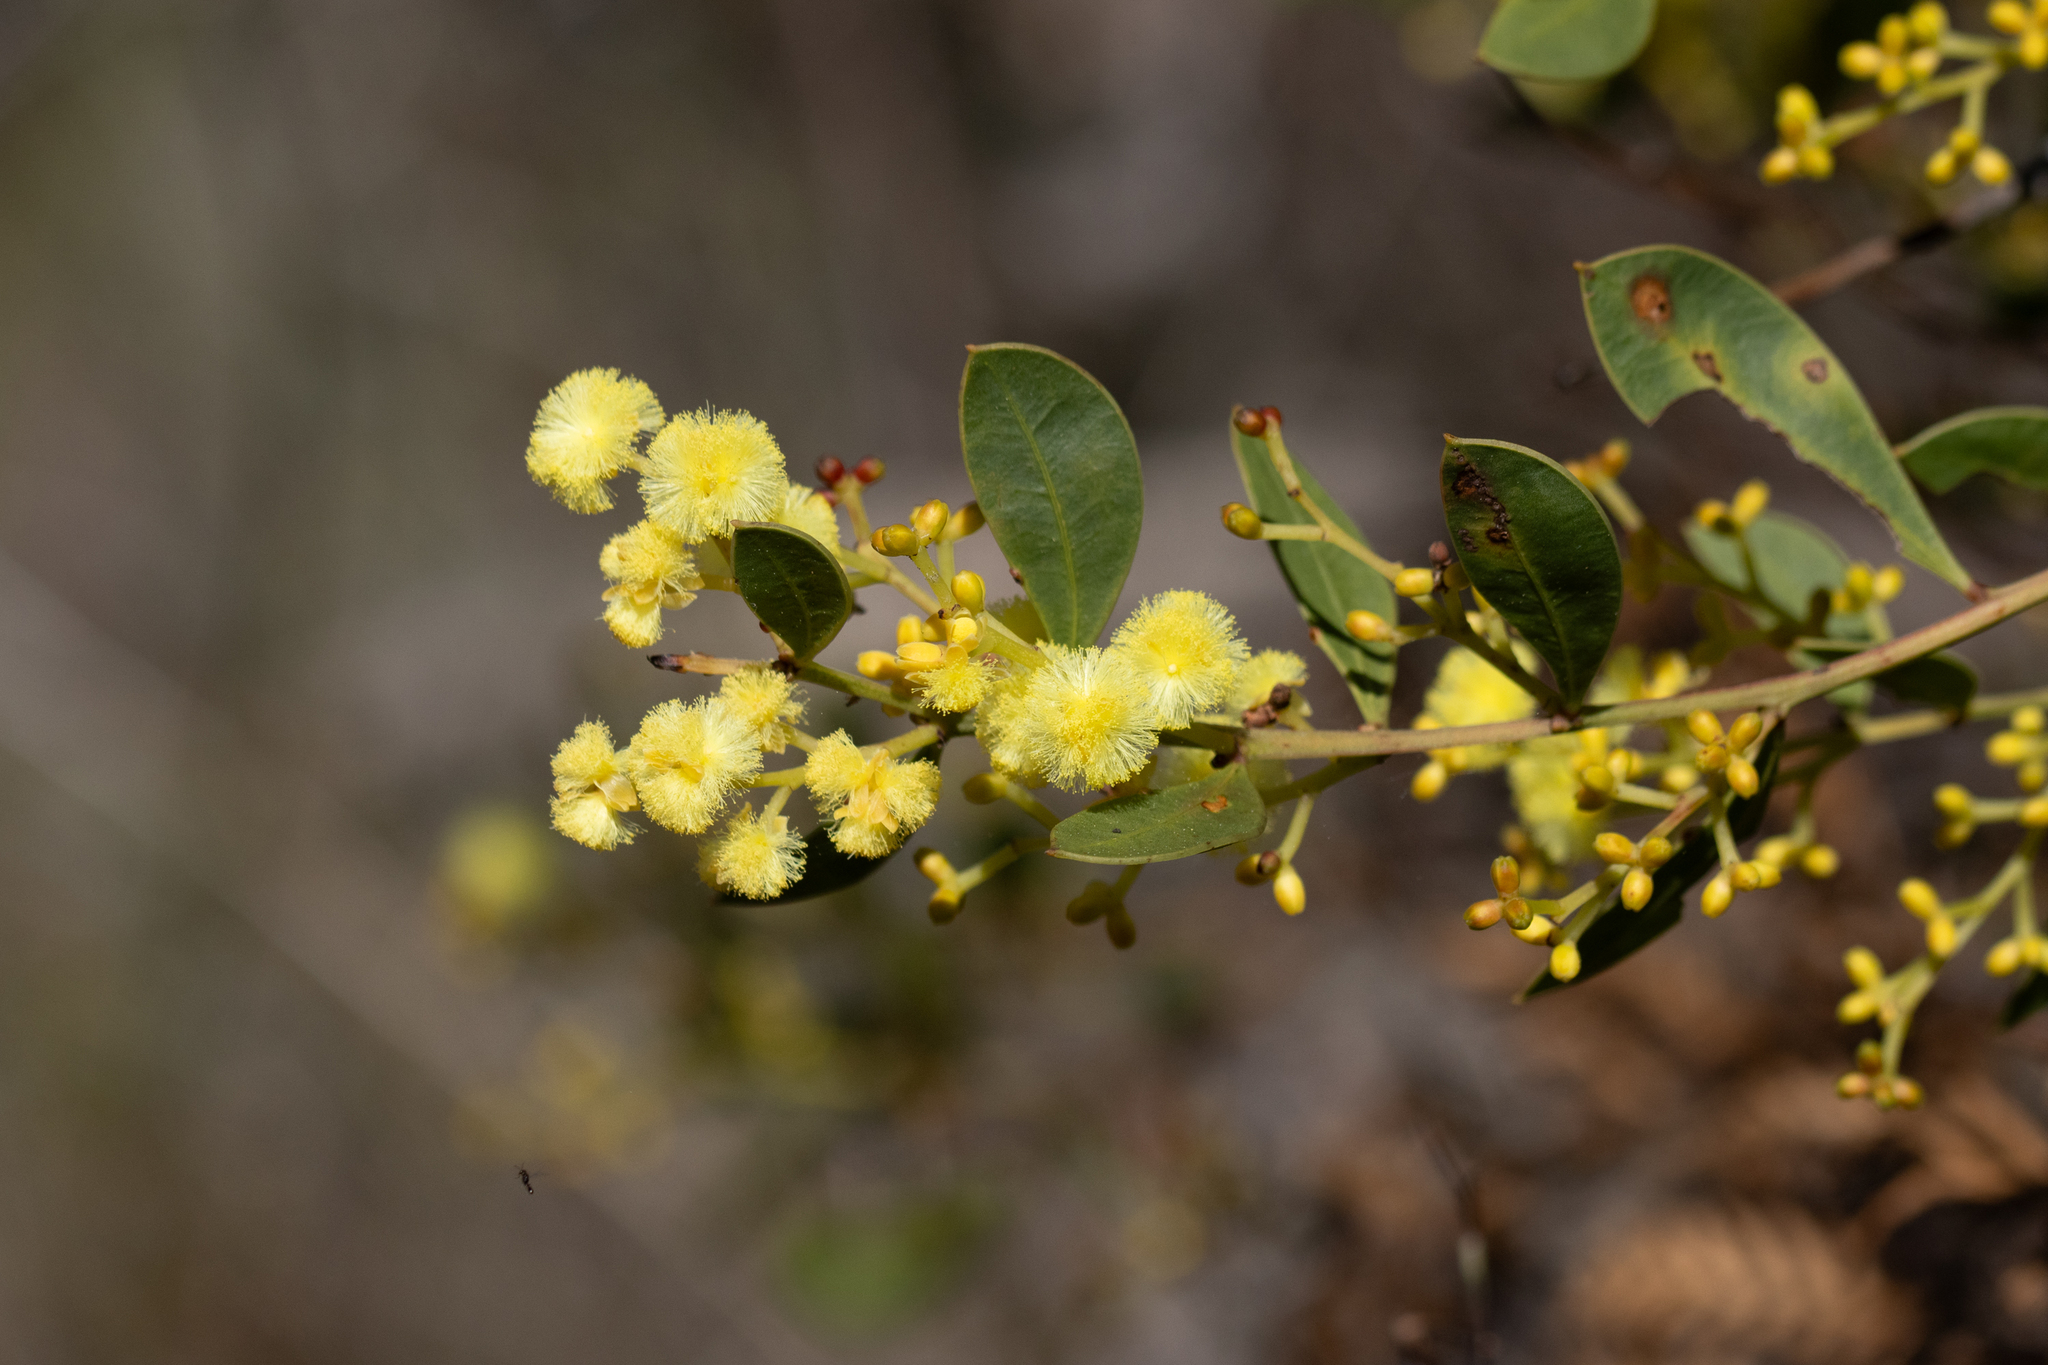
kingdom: Plantae
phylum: Tracheophyta
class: Magnoliopsida
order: Fabales
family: Fabaceae
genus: Acacia
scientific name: Acacia myrtifolia
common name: Myrtle wattle
